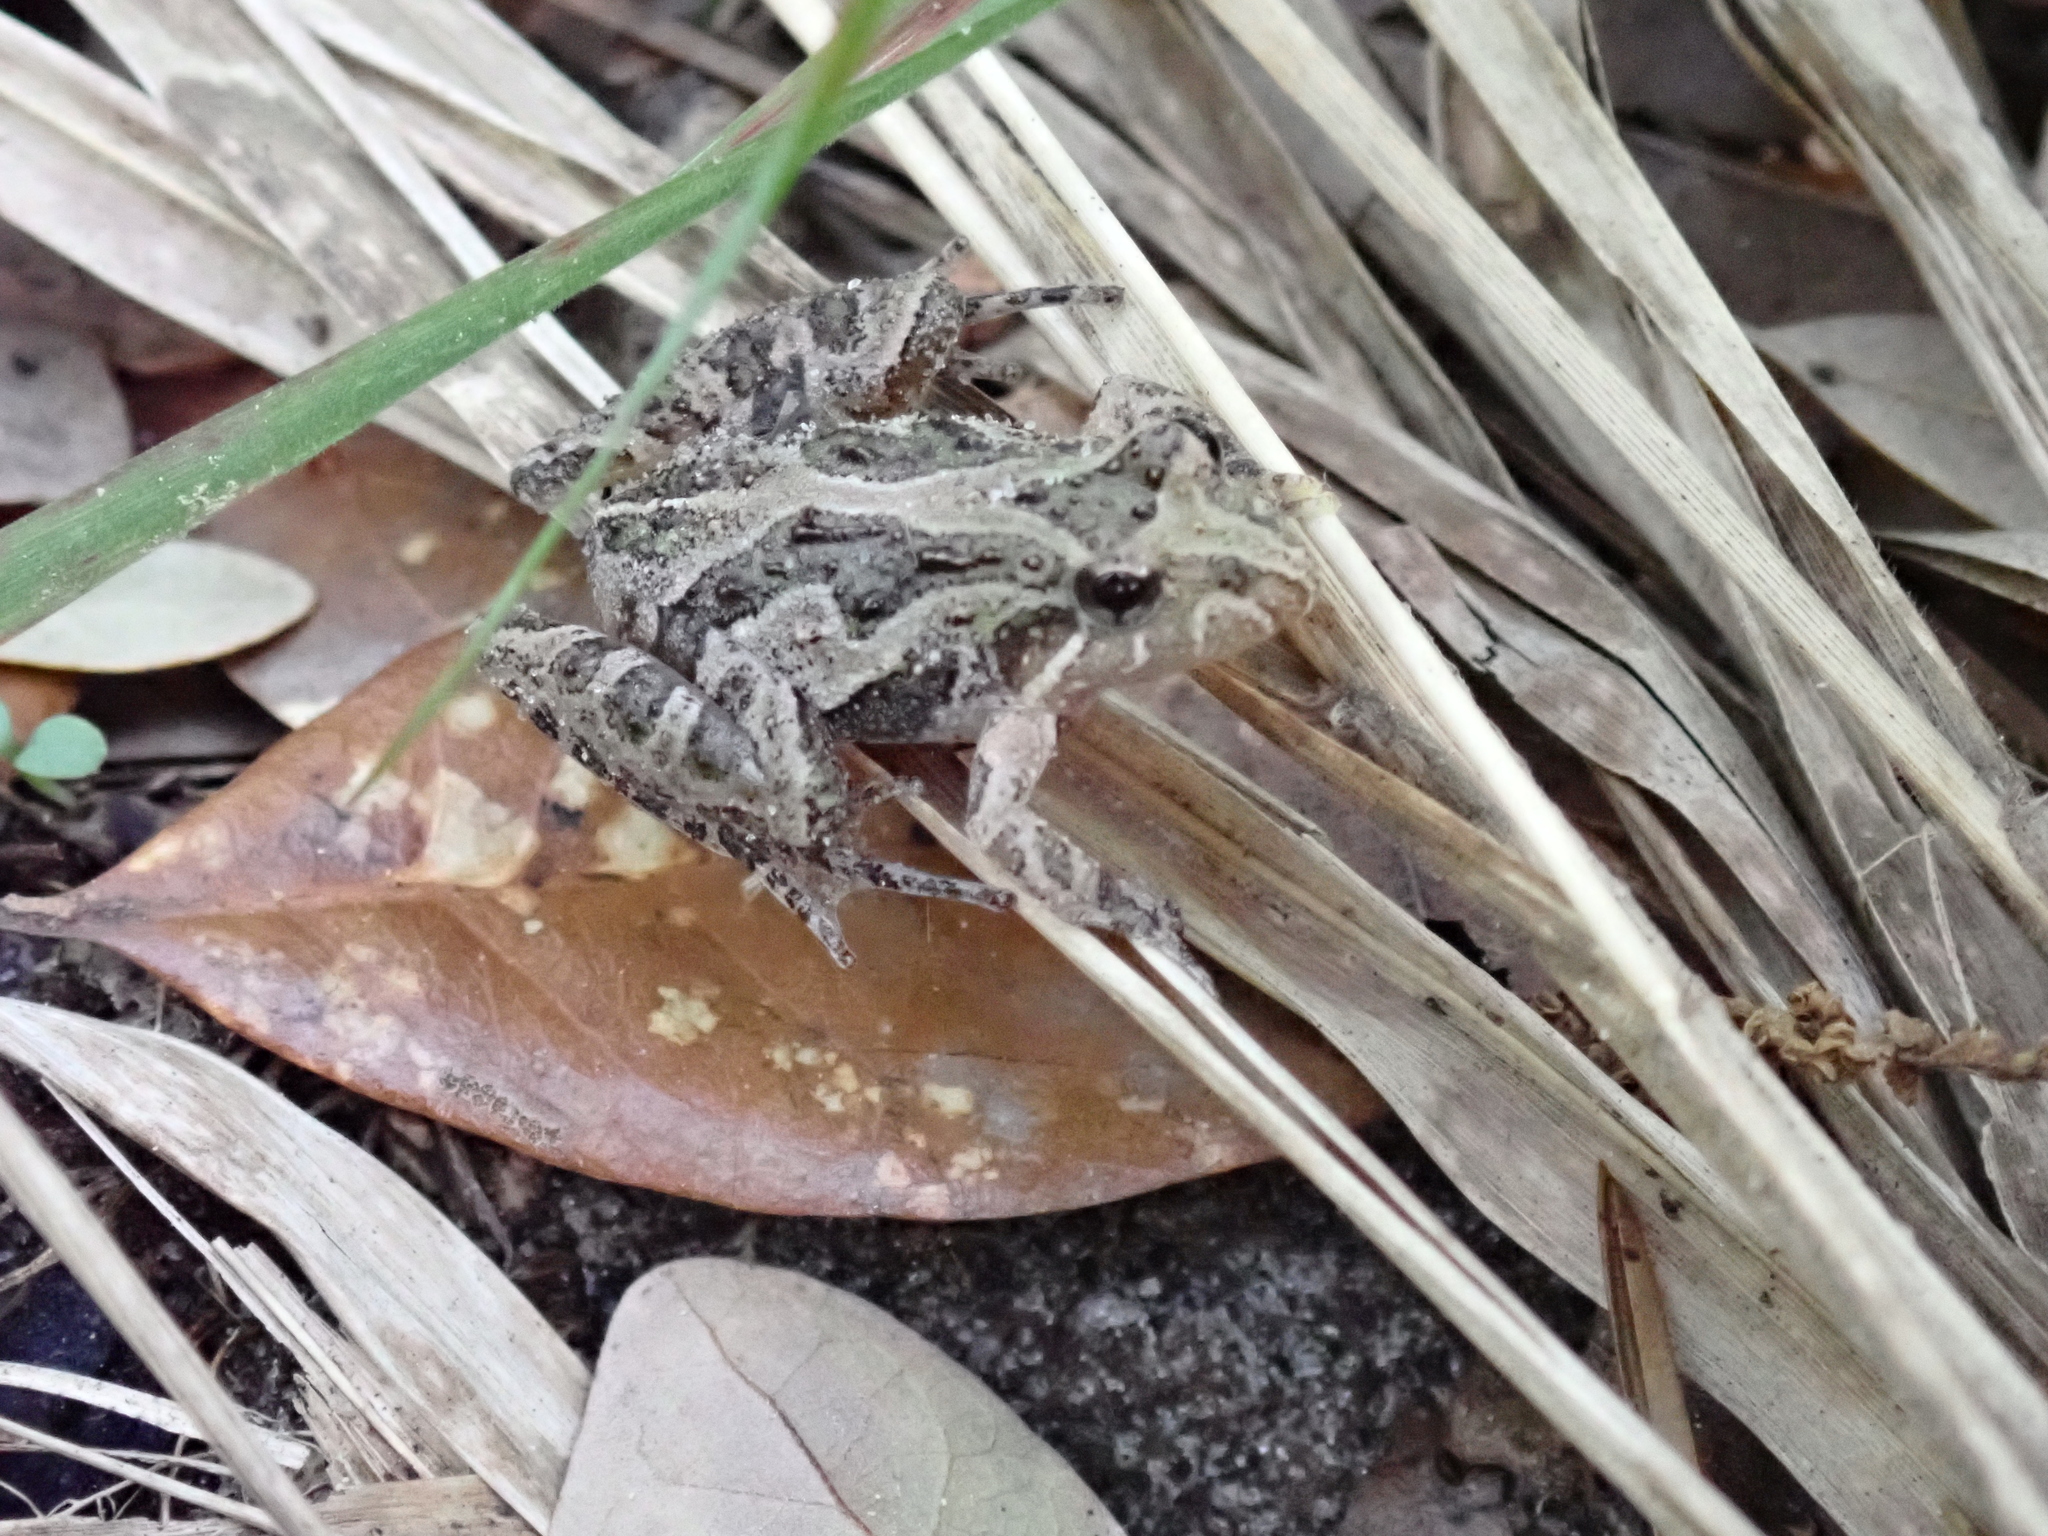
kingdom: Animalia
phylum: Chordata
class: Amphibia
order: Anura
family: Hylidae
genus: Acris
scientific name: Acris gryllus
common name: Southern cricket frog
